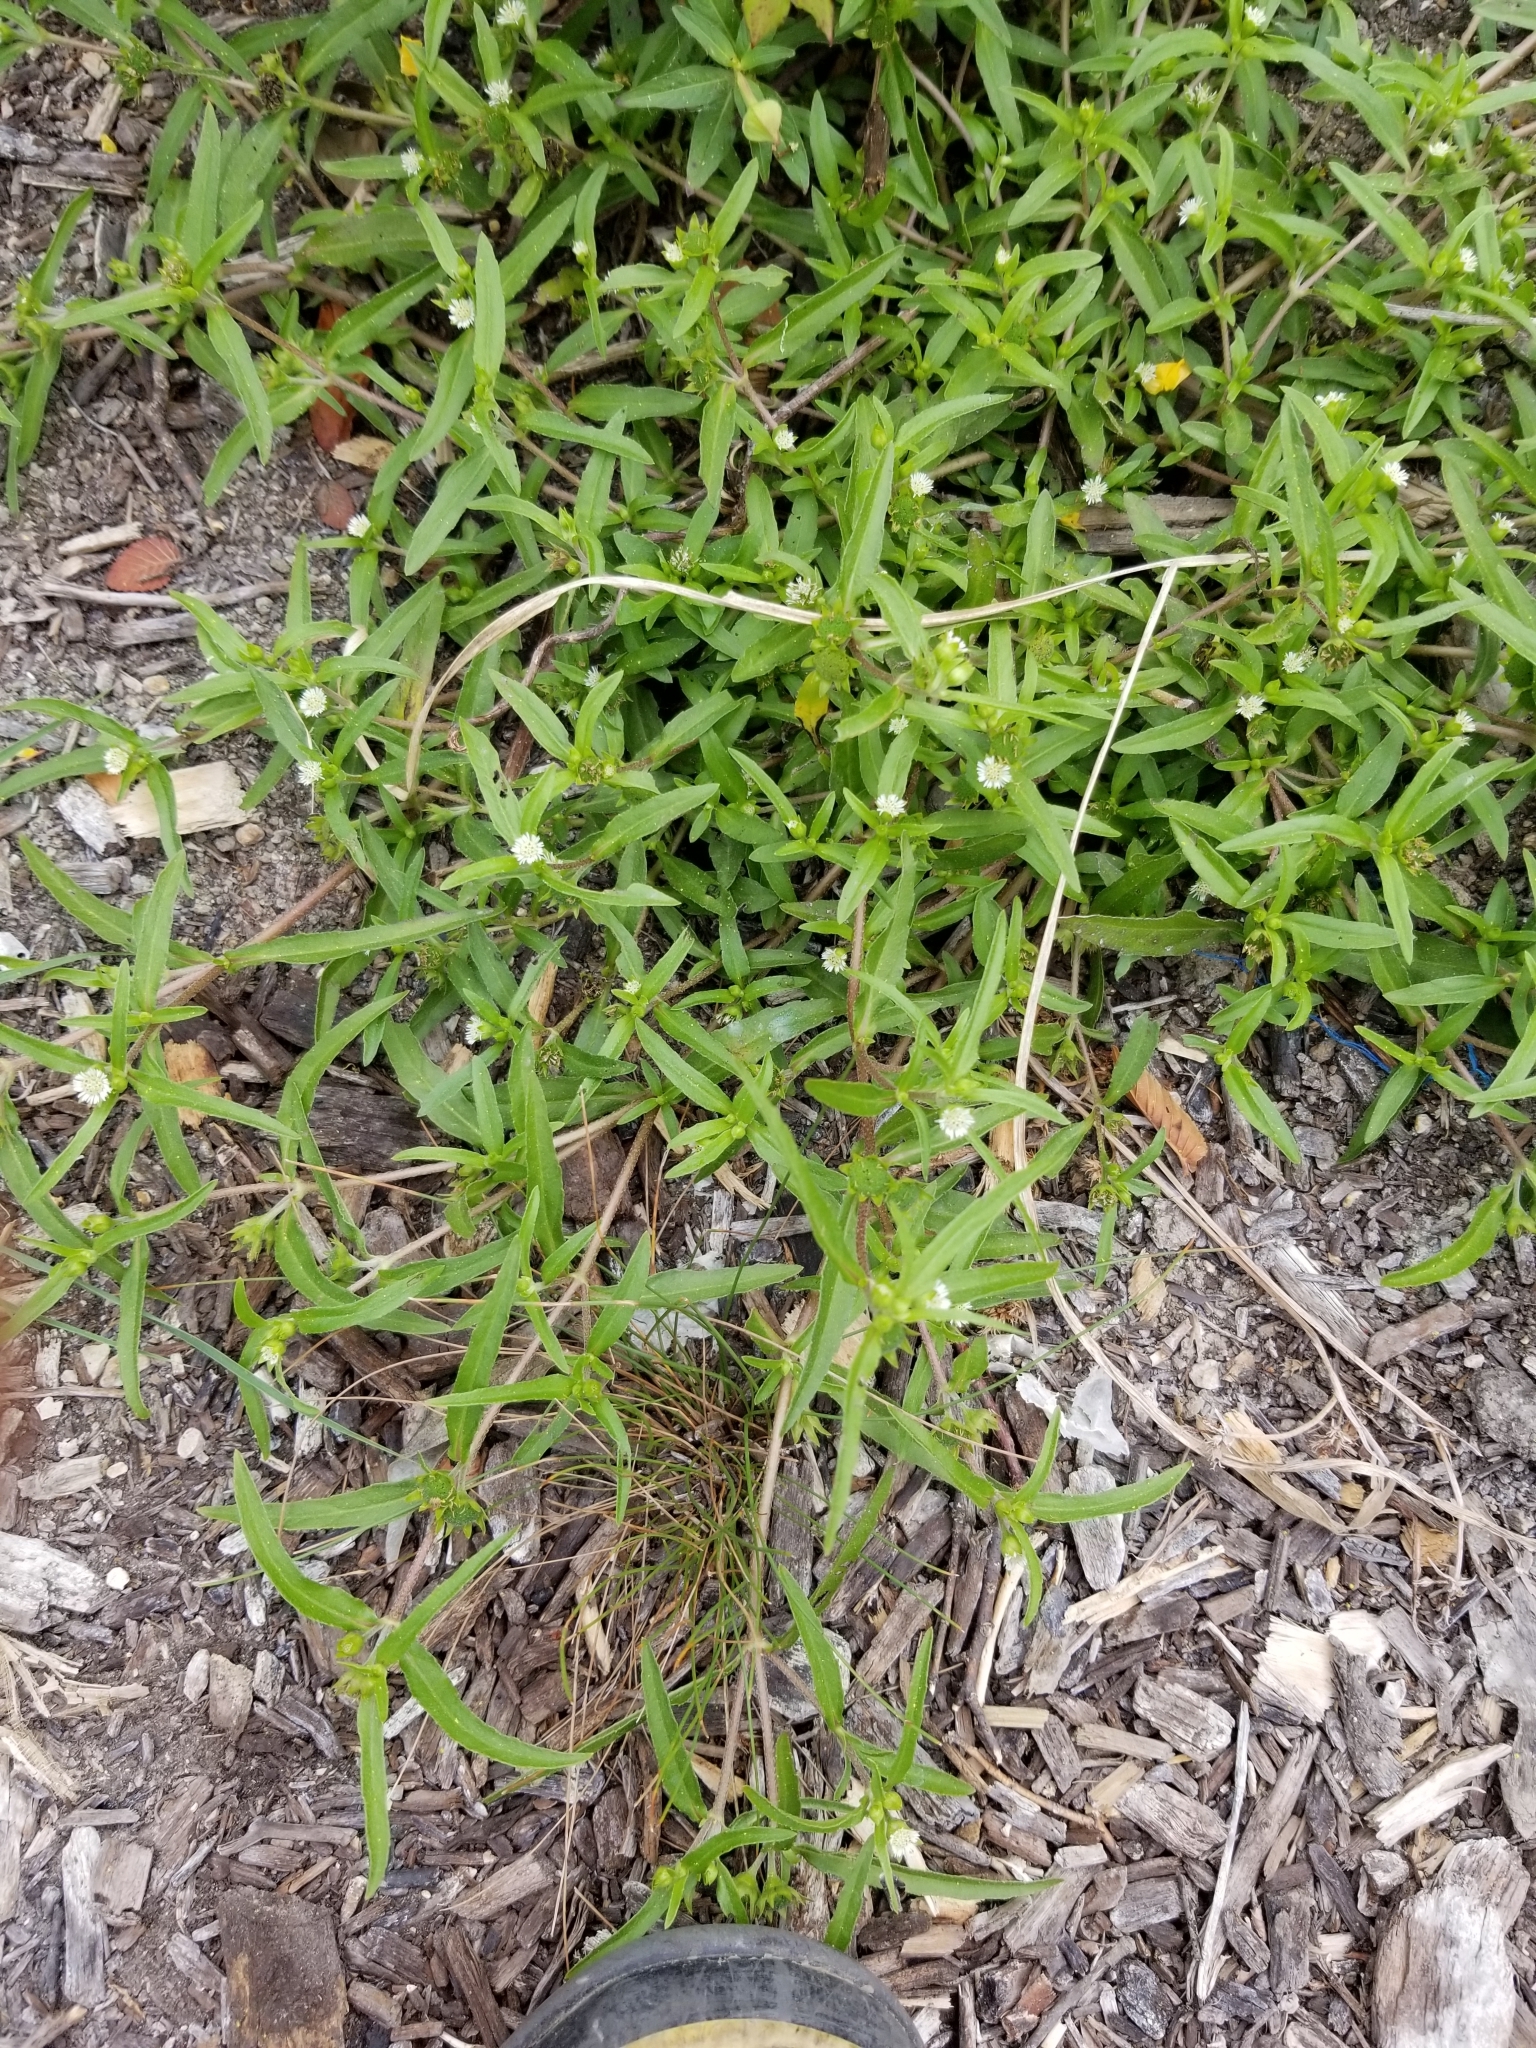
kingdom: Plantae
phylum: Tracheophyta
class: Magnoliopsida
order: Asterales
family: Asteraceae
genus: Eclipta
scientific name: Eclipta prostrata
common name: False daisy
